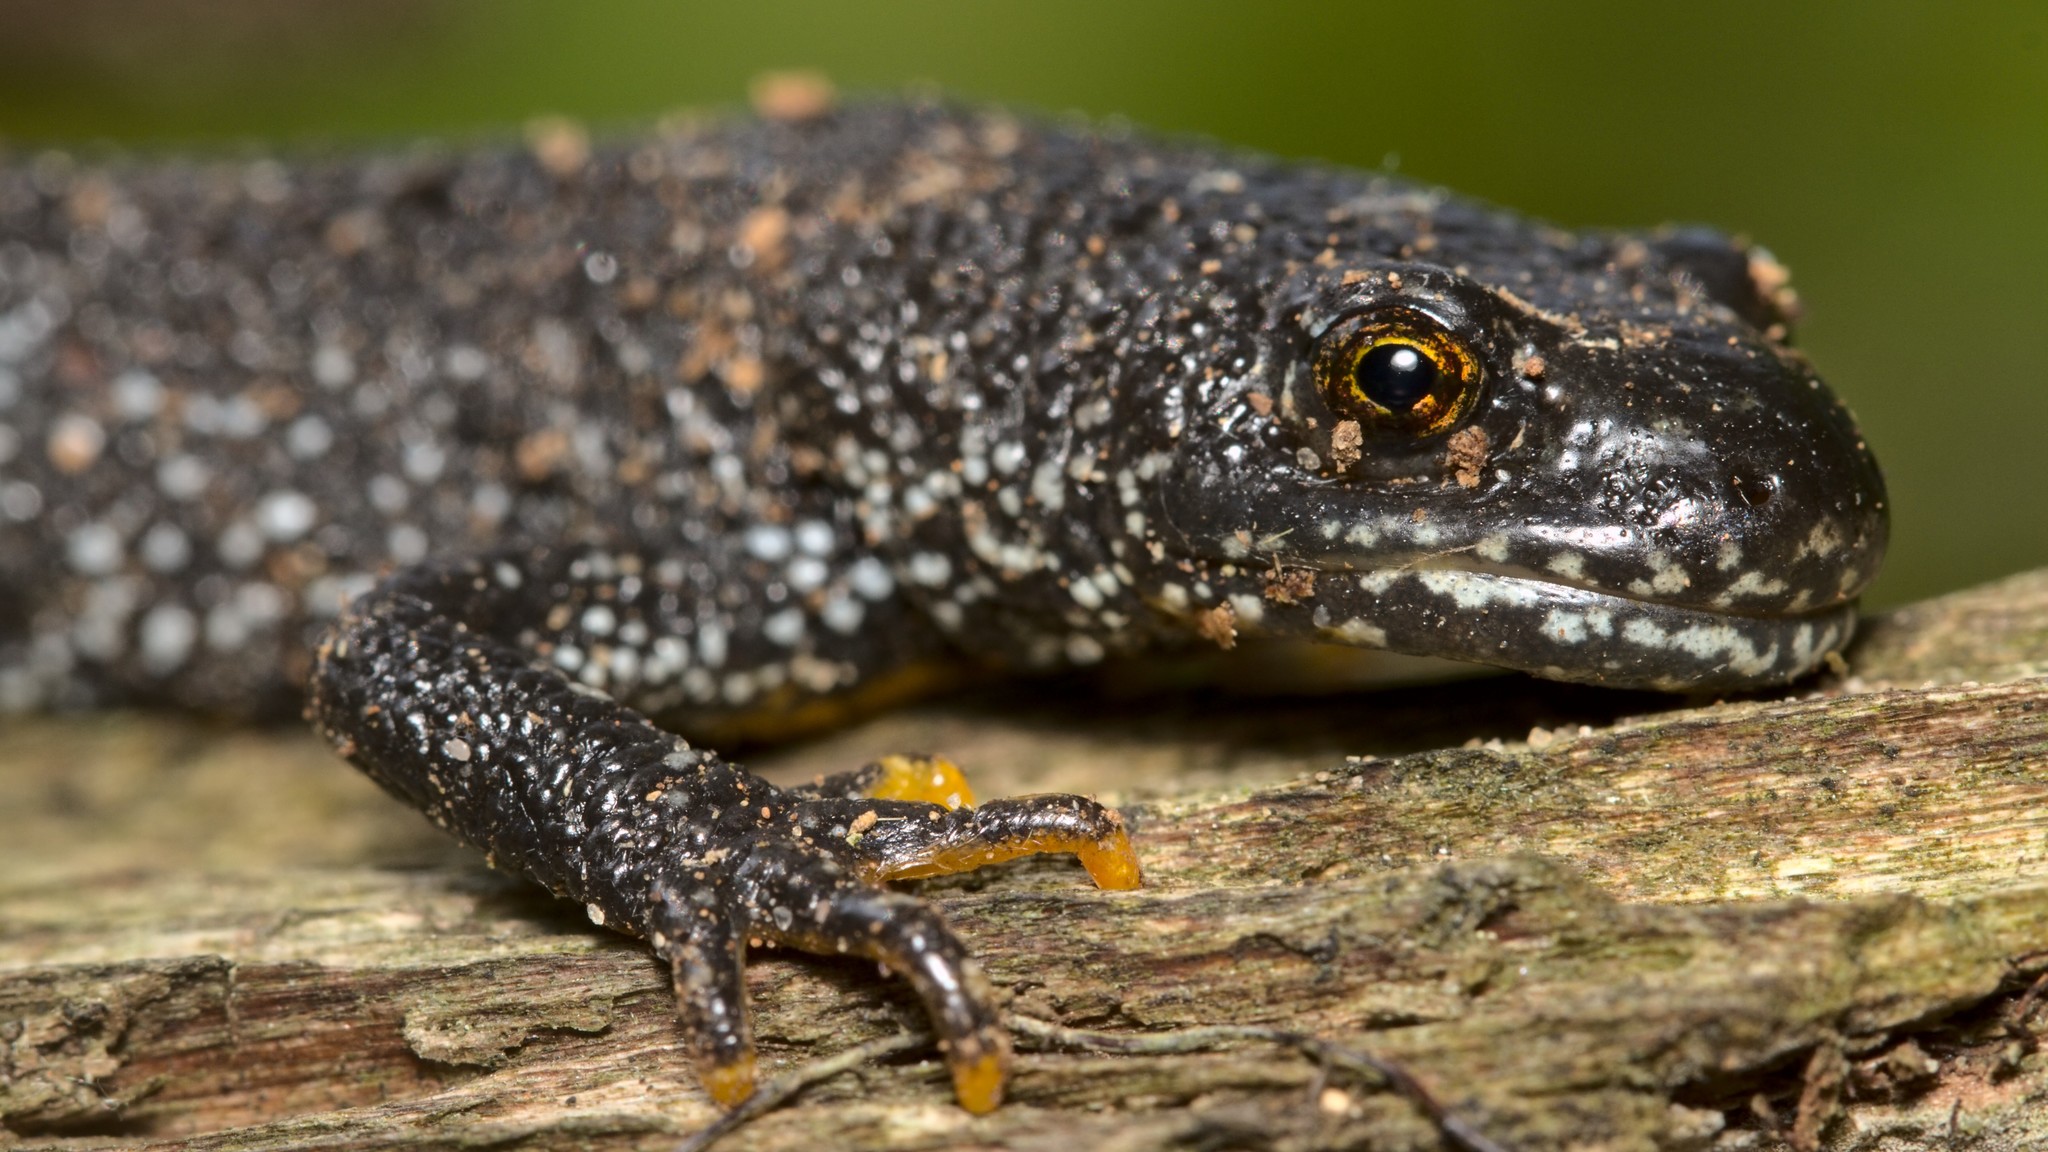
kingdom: Animalia
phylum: Chordata
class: Amphibia
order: Caudata
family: Salamandridae
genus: Triturus
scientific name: Triturus cristatus
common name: Crested newt
